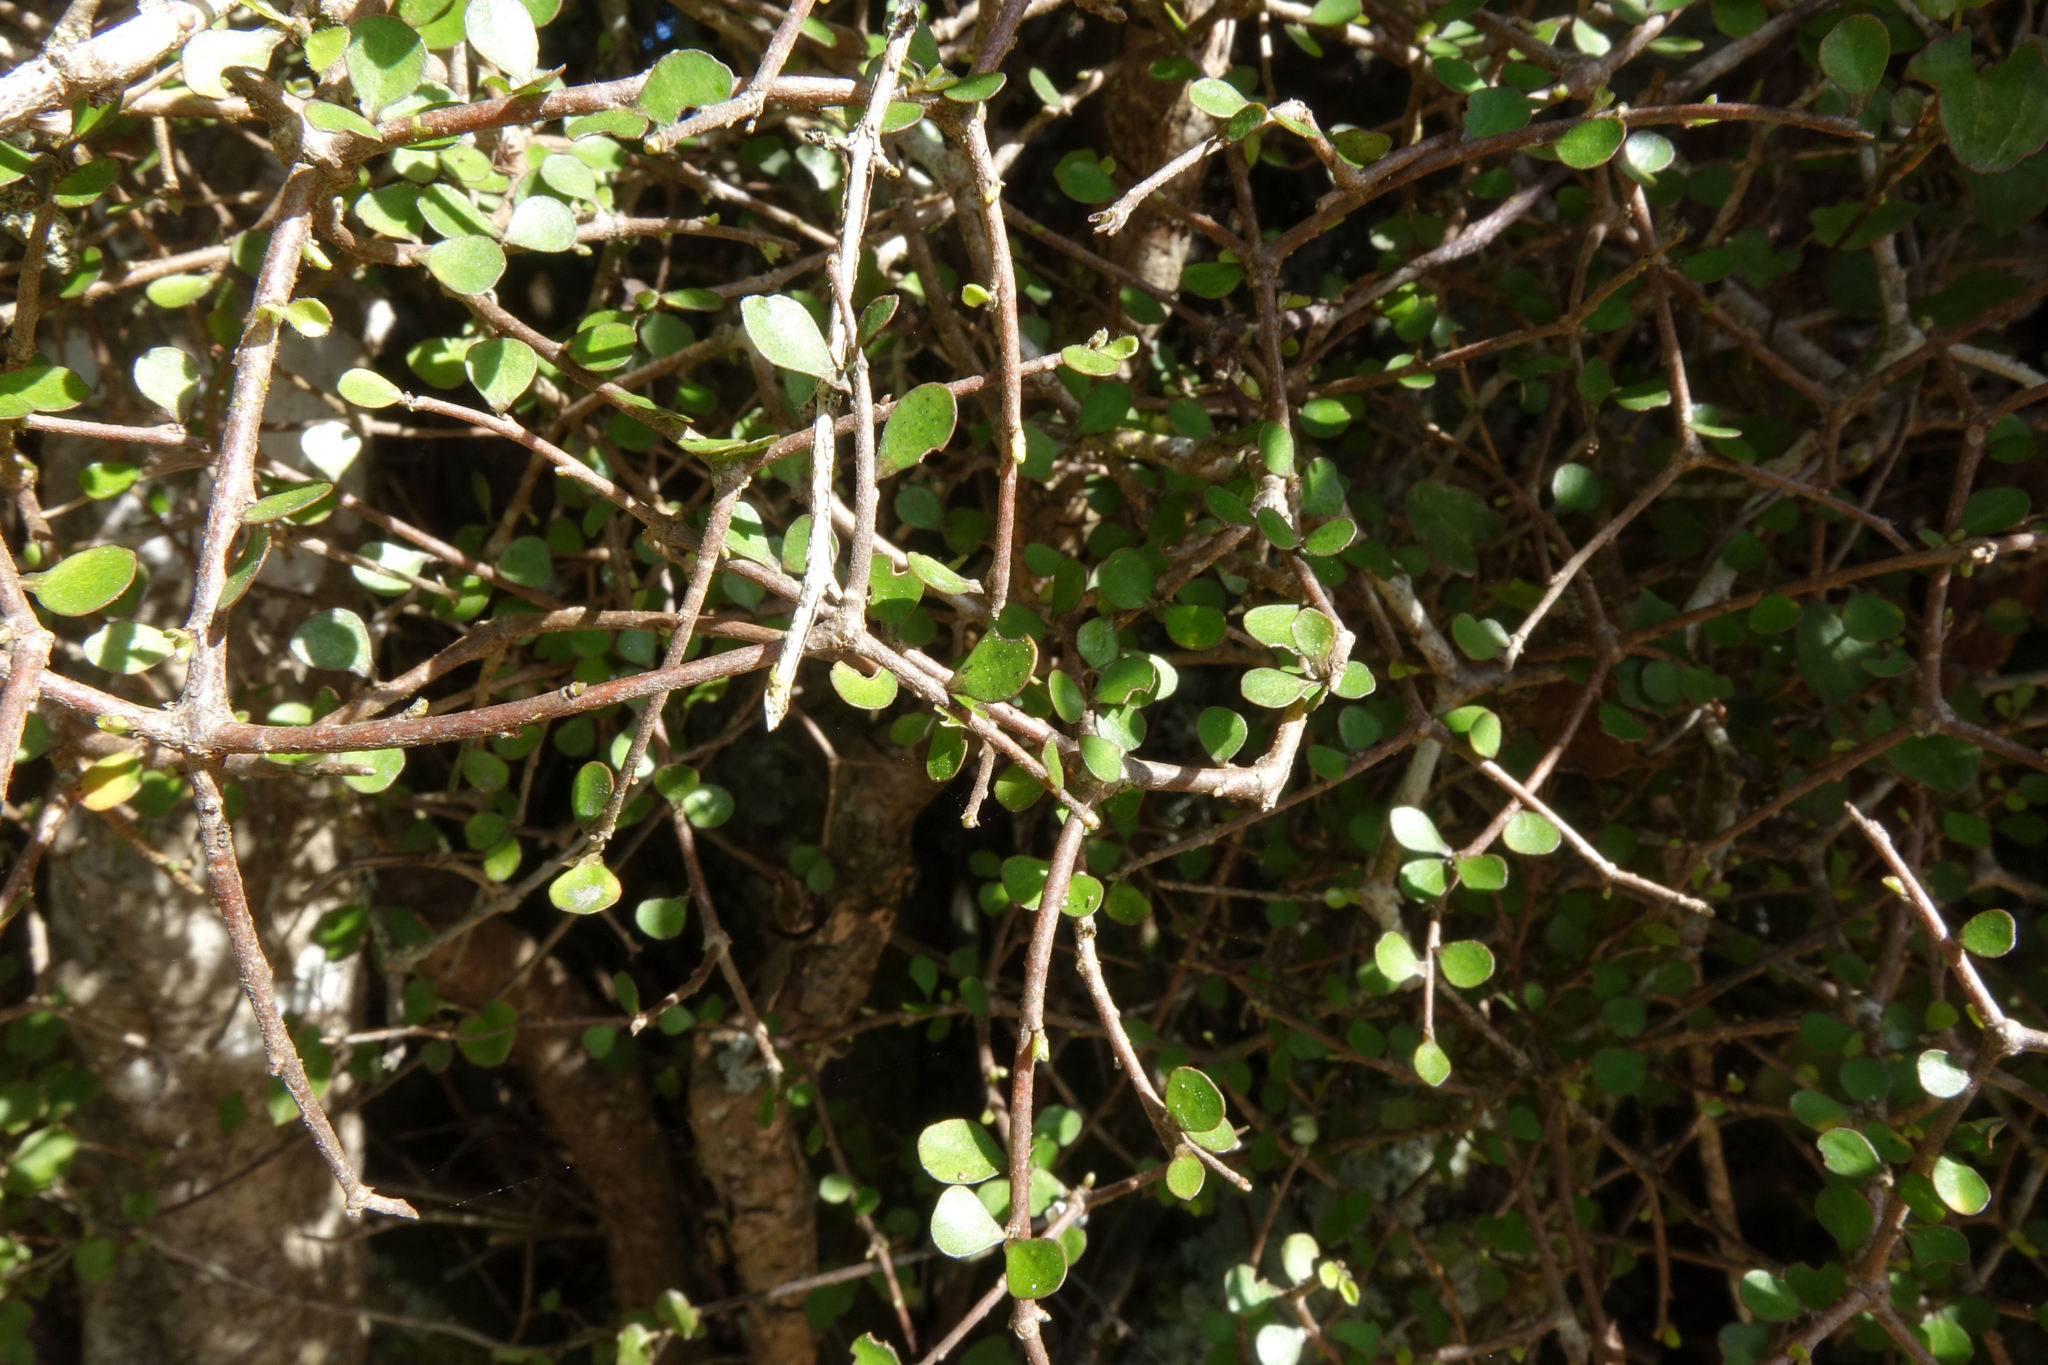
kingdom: Plantae
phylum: Tracheophyta
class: Magnoliopsida
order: Apiales
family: Pittosporaceae
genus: Pittosporum
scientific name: Pittosporum obcordatum
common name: Heart-leaved kohuhu
